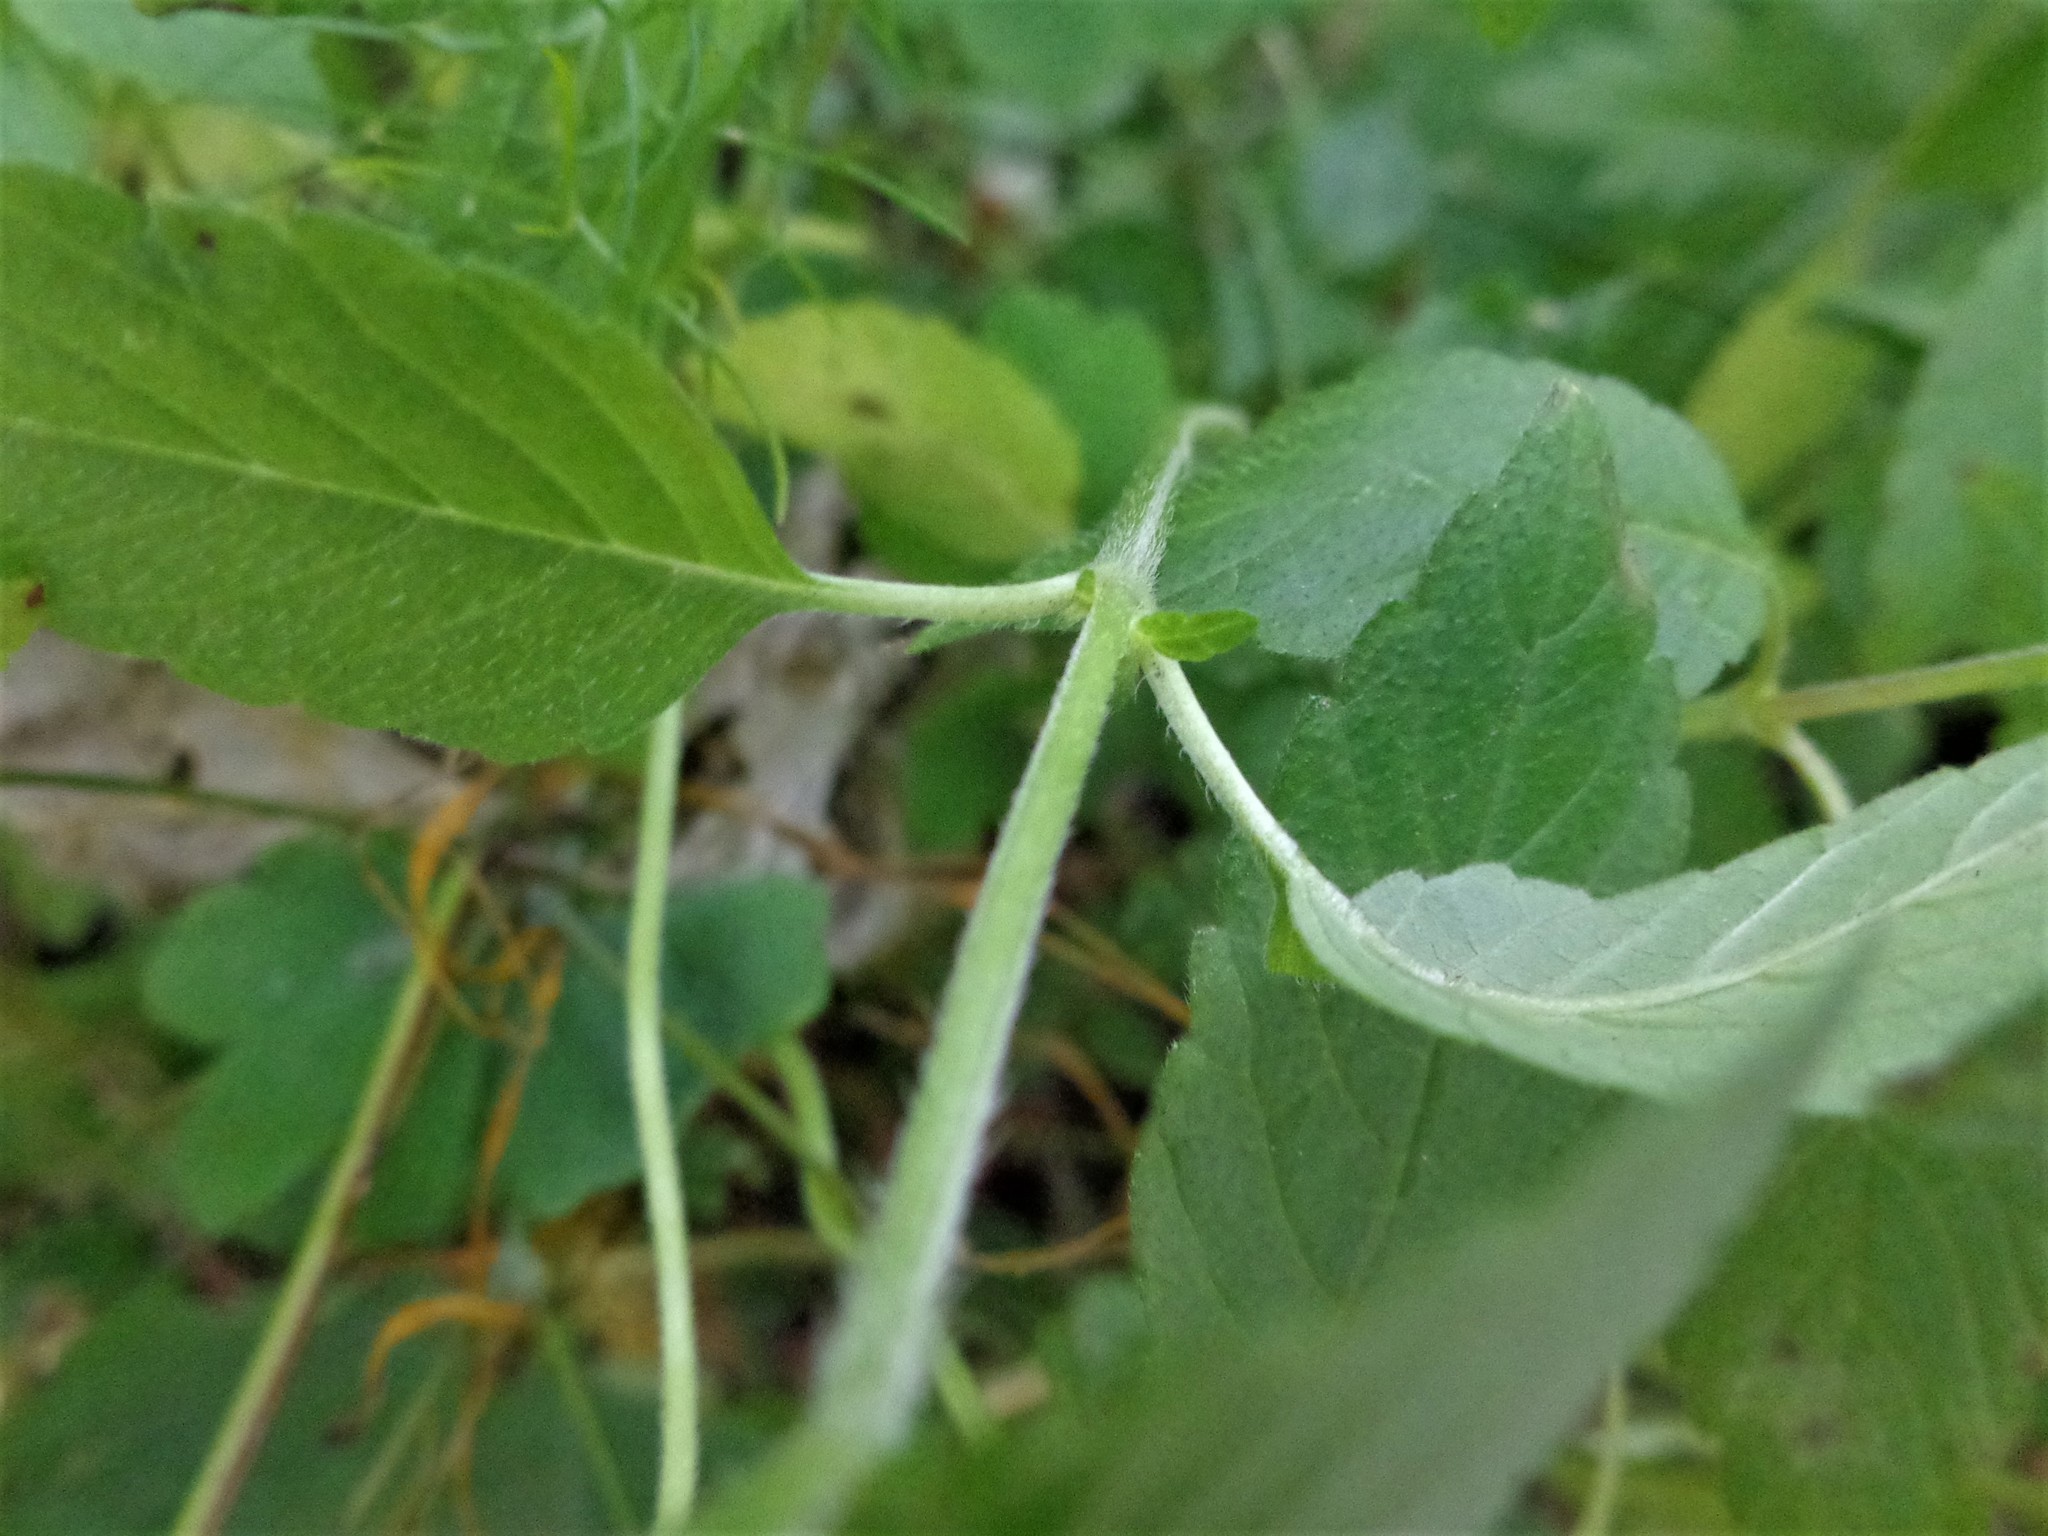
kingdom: Plantae
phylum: Tracheophyta
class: Magnoliopsida
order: Lamiales
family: Lamiaceae
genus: Galeopsis
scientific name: Galeopsis bifida
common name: Bifid hemp-nettle
